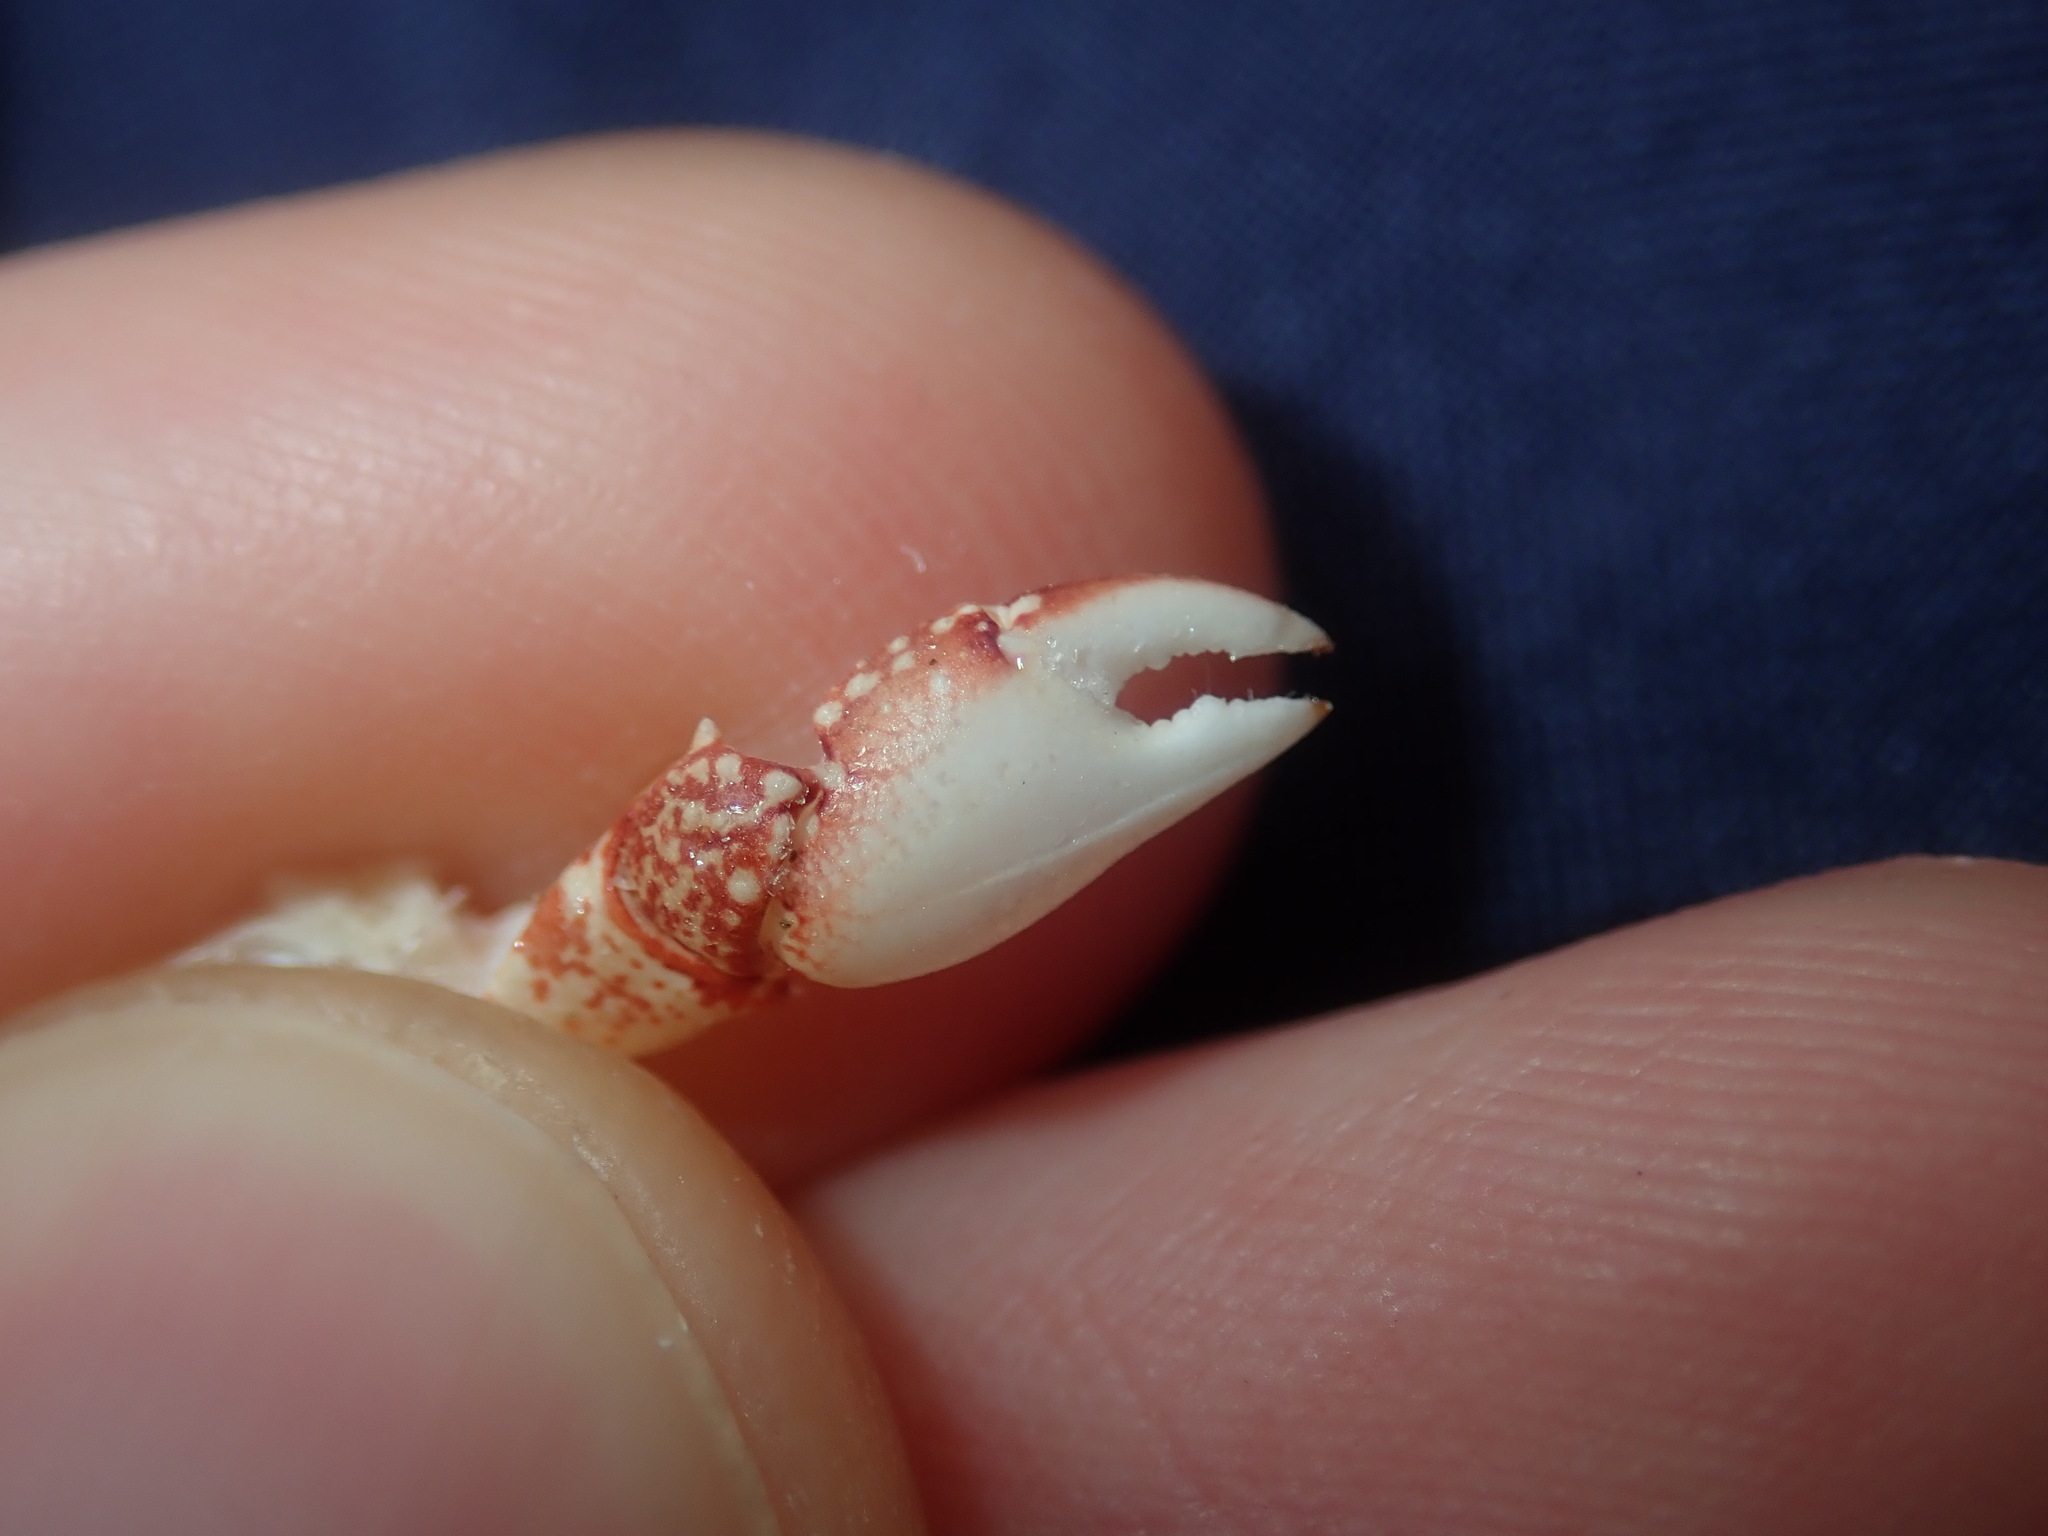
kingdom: Animalia
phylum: Arthropoda
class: Malacostraca
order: Decapoda
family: Grapsidae
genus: Leptograpsus
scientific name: Leptograpsus variegatus
